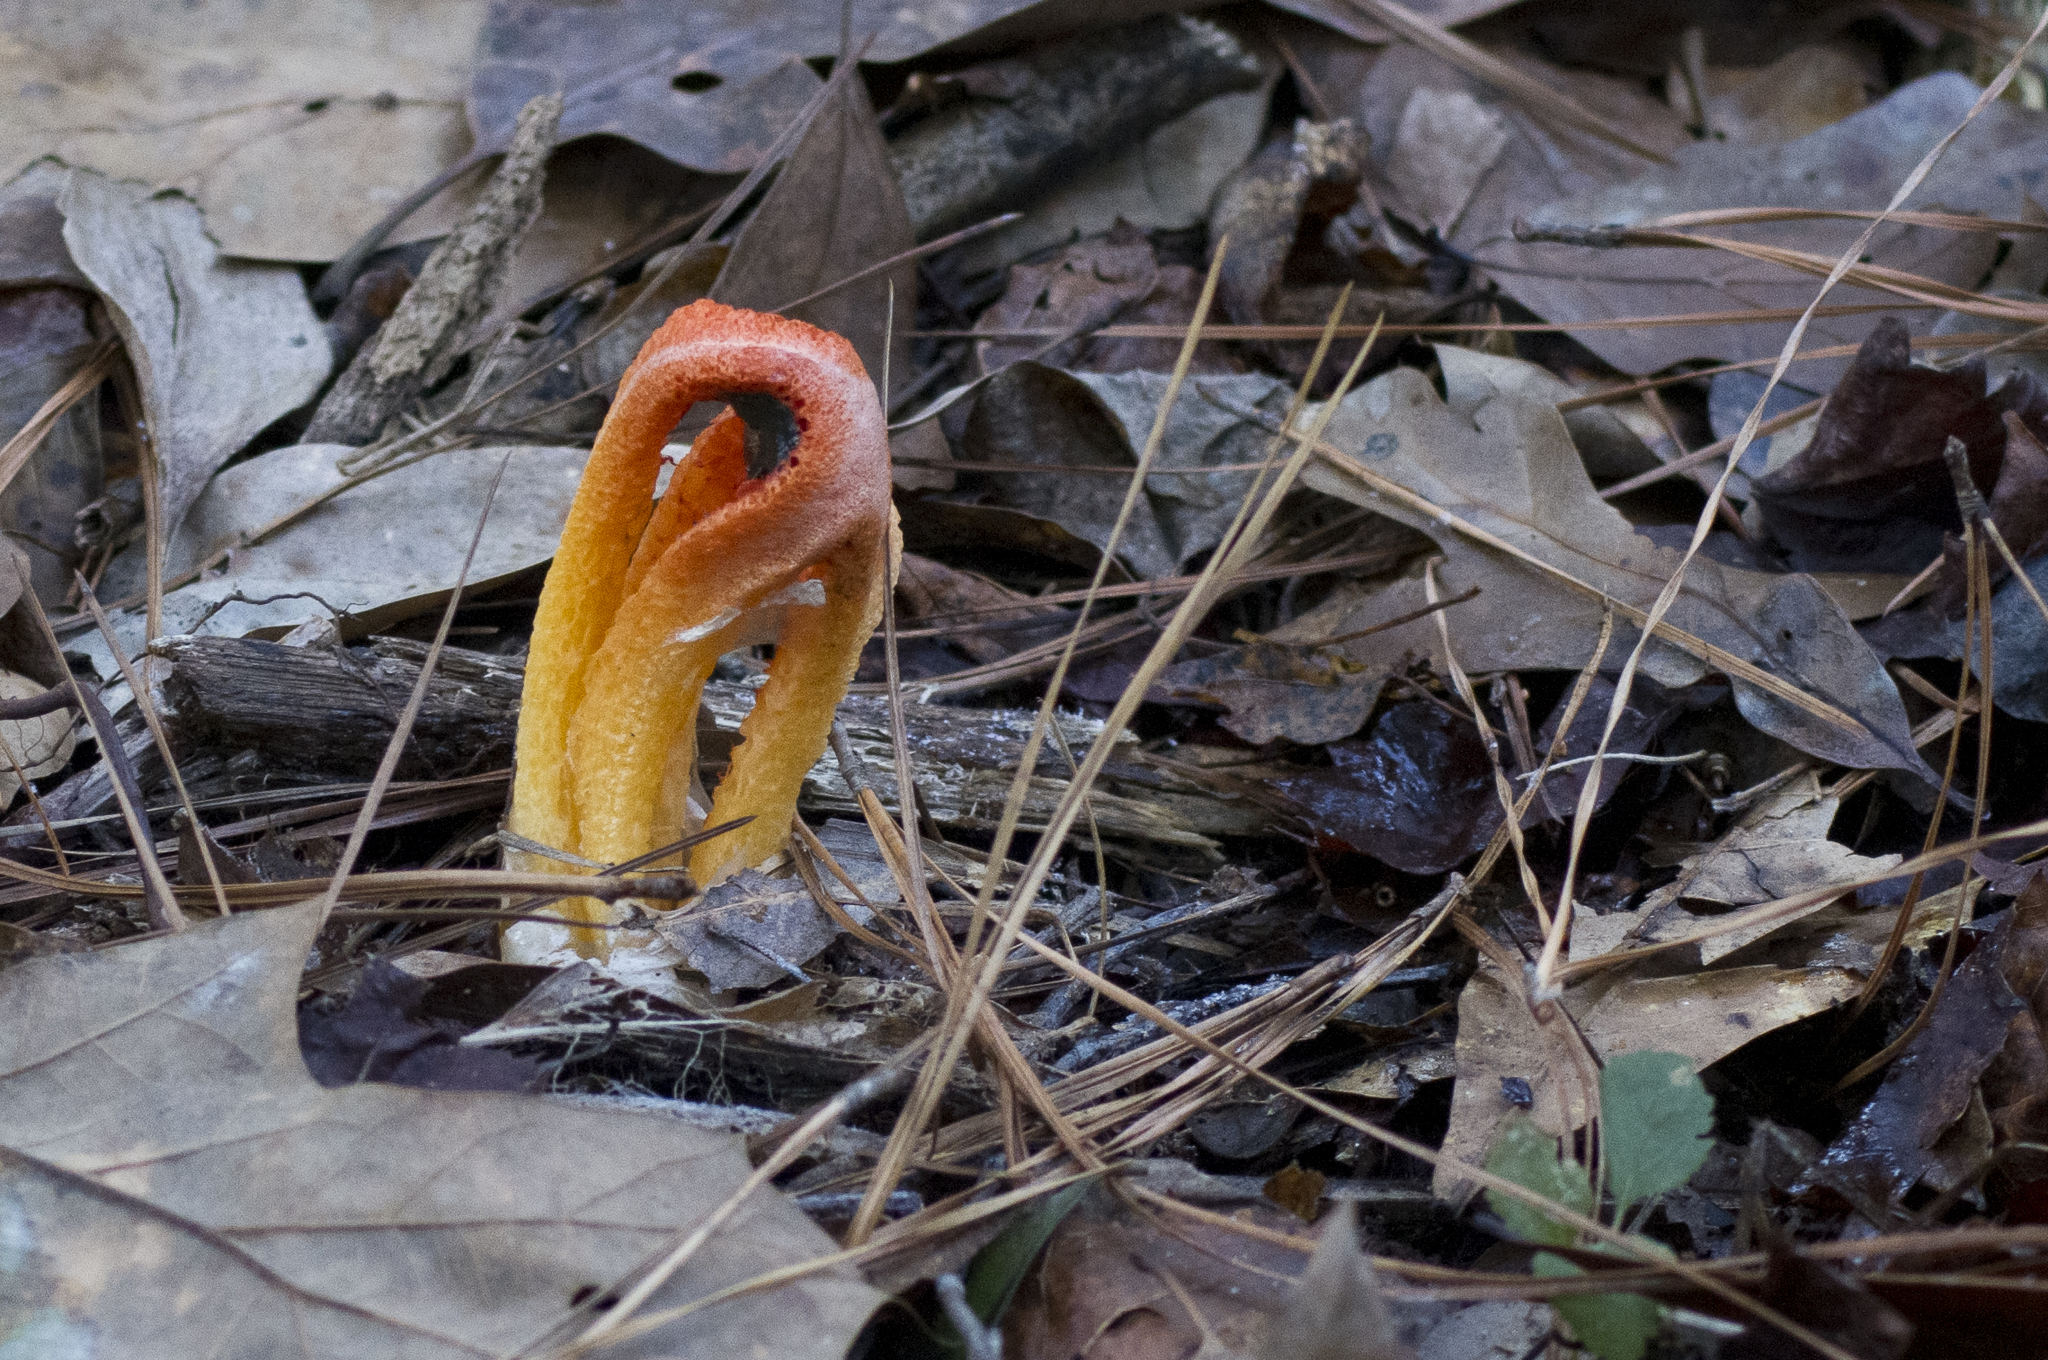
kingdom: Fungi
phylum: Basidiomycota
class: Agaricomycetes
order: Phallales
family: Phallaceae
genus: Clathrus
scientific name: Clathrus columnatus
